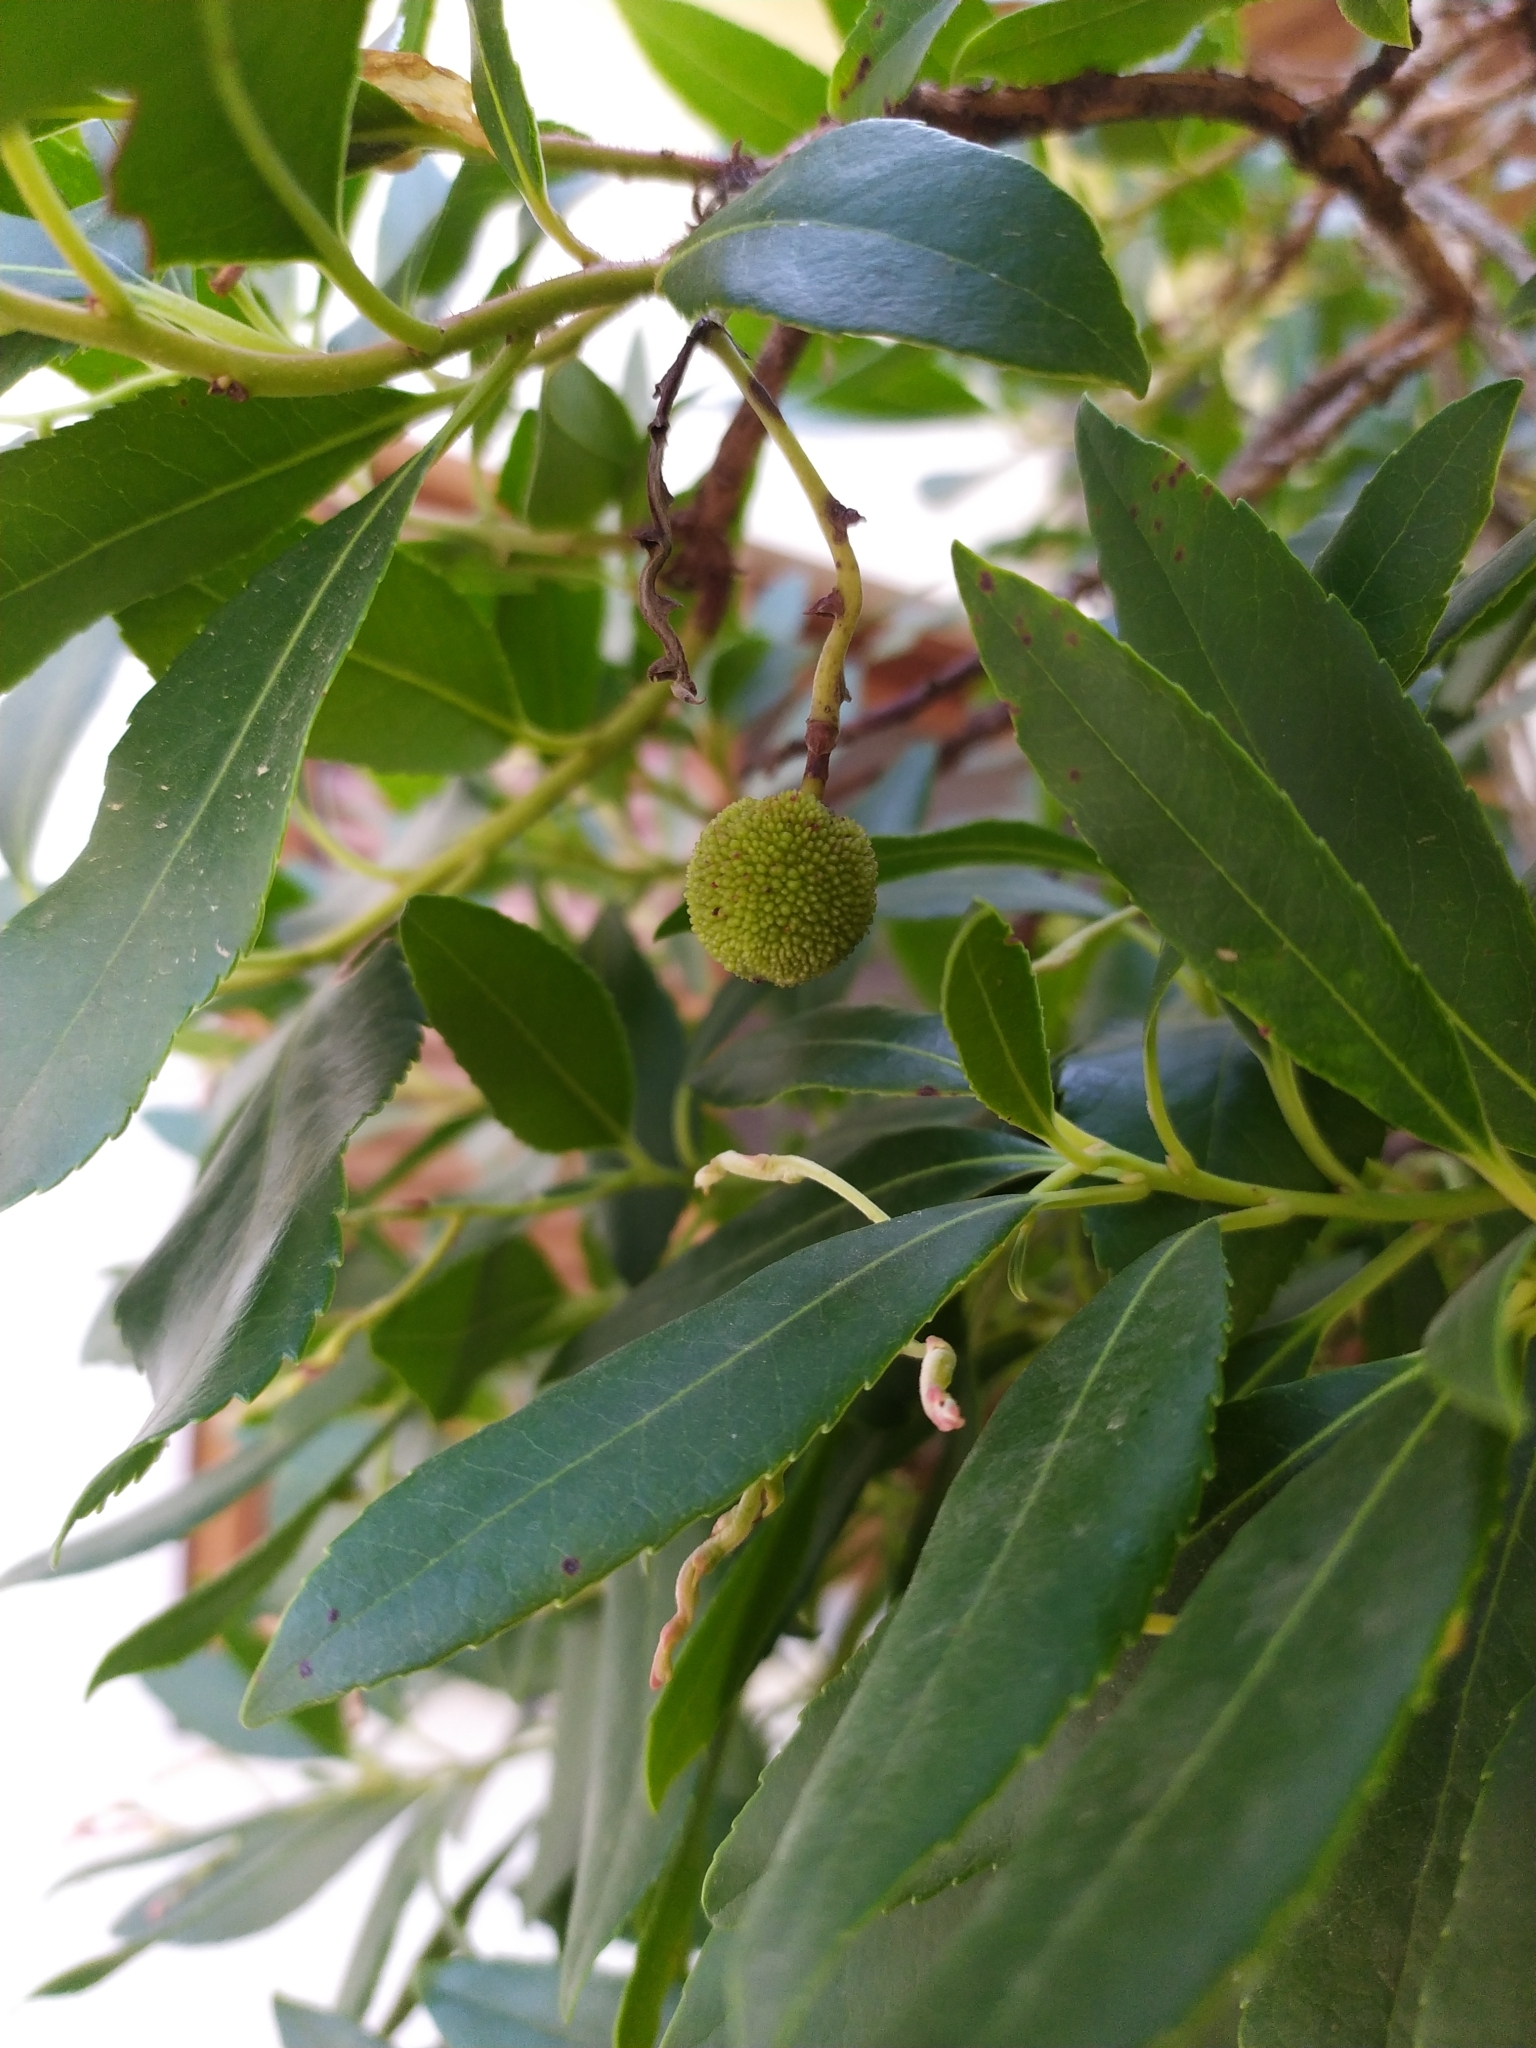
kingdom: Plantae
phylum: Tracheophyta
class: Magnoliopsida
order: Ericales
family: Ericaceae
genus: Arbutus
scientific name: Arbutus unedo
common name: Strawberry-tree
